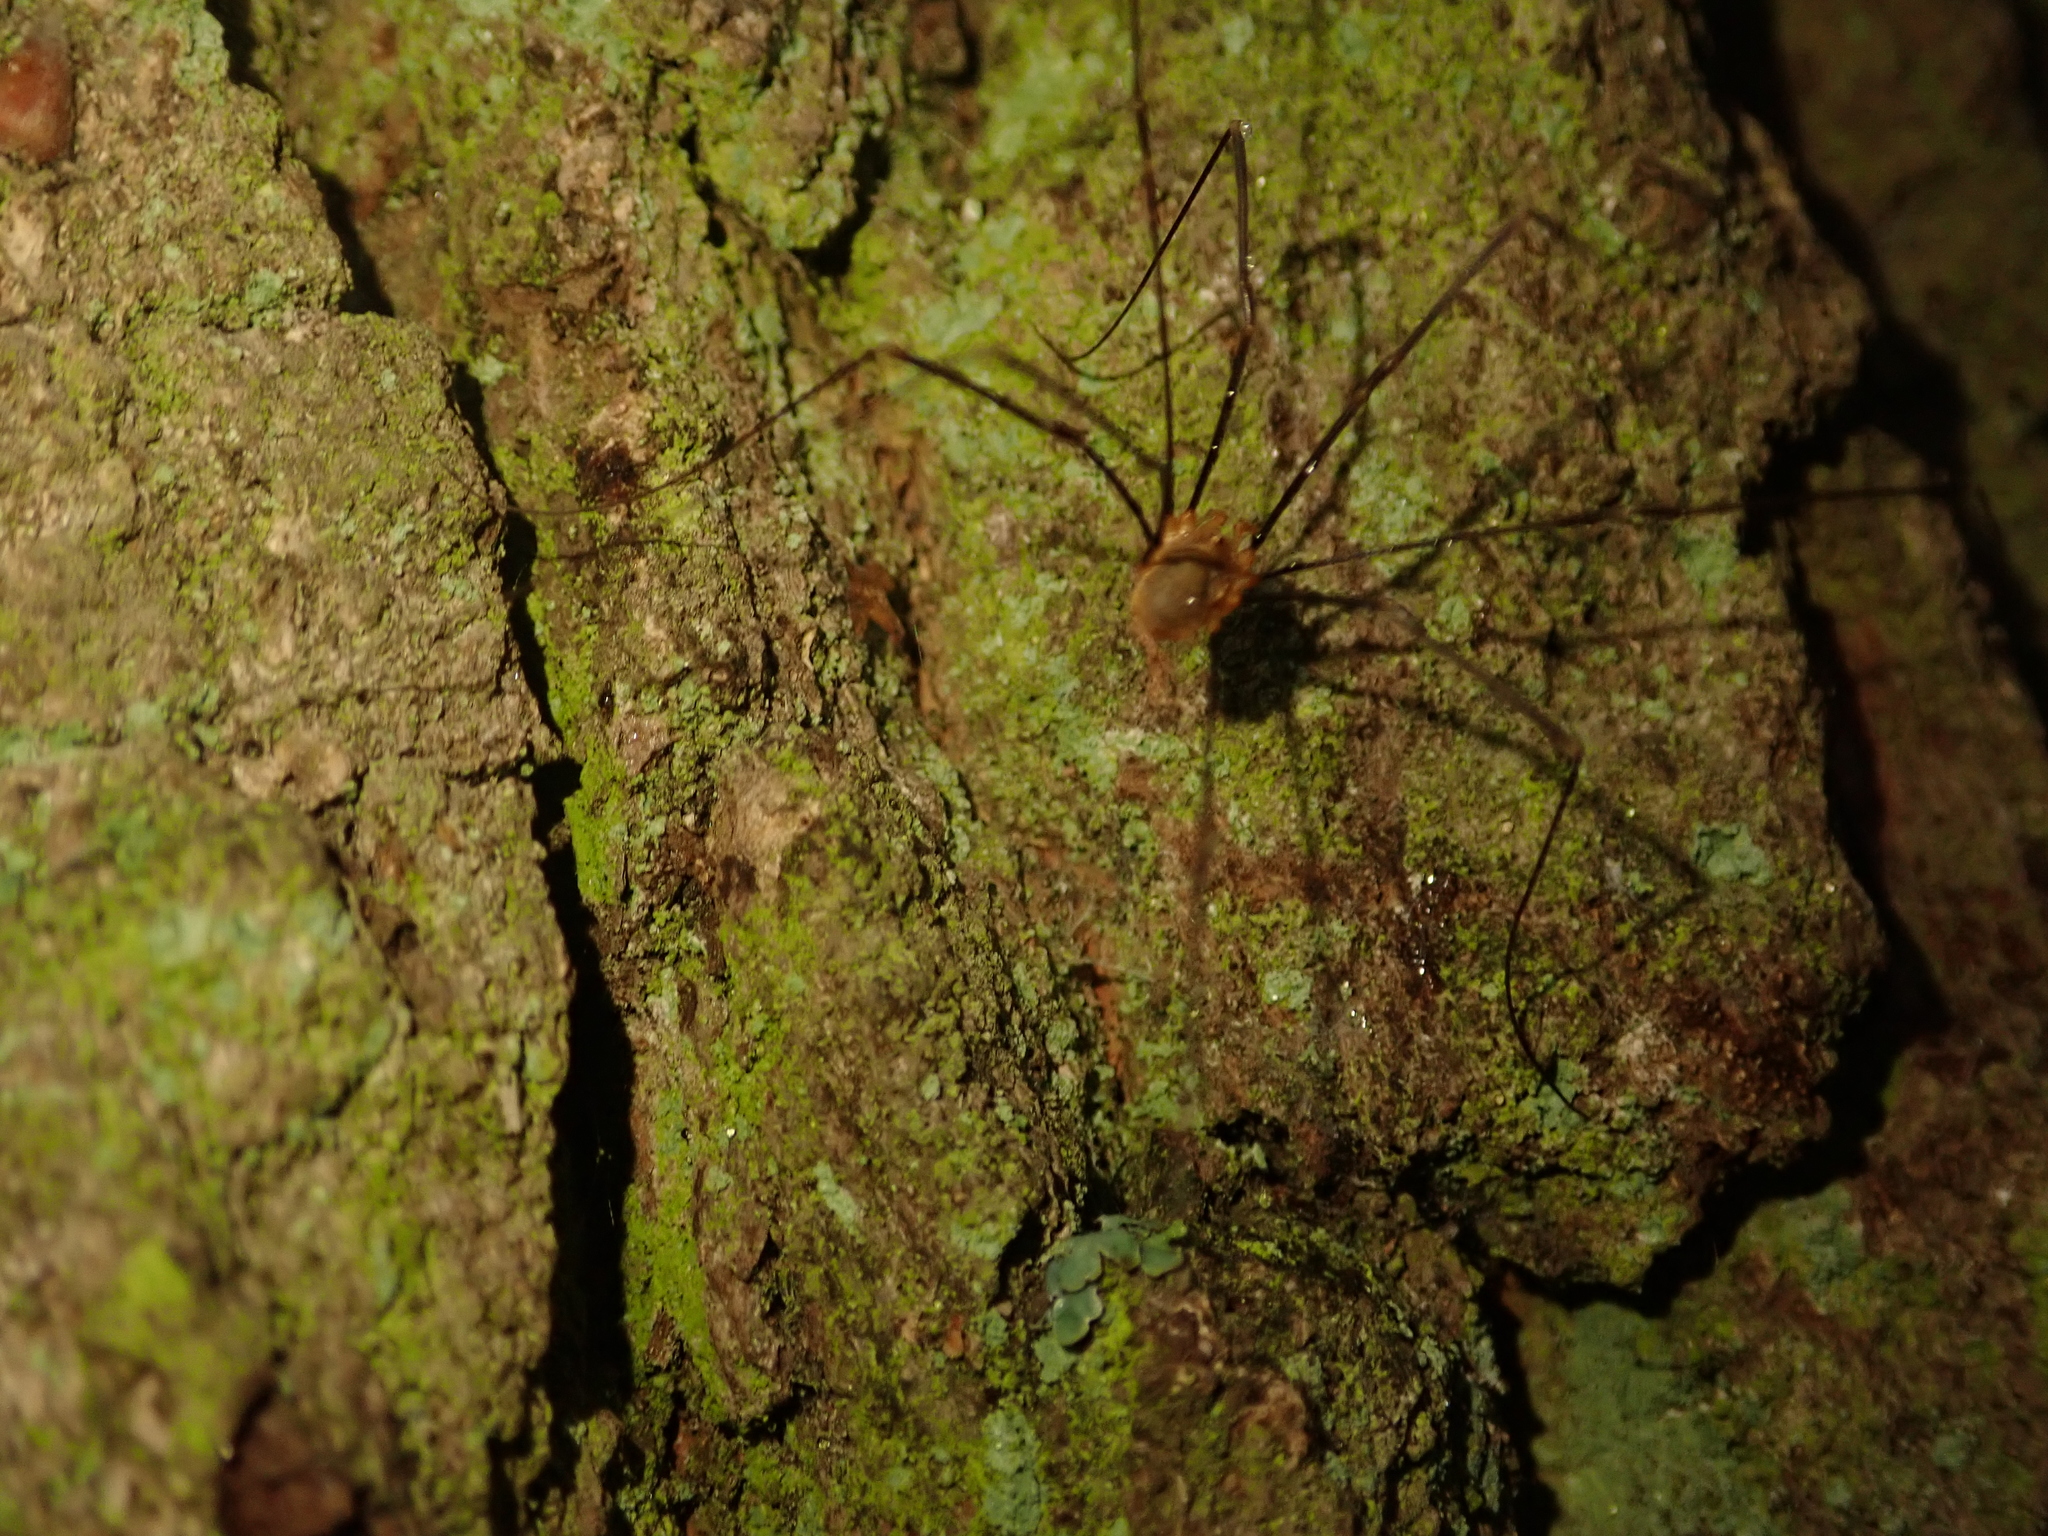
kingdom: Animalia
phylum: Arthropoda
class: Arachnida
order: Opiliones
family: Phalangiidae
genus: Opilio
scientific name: Opilio canestrinii
